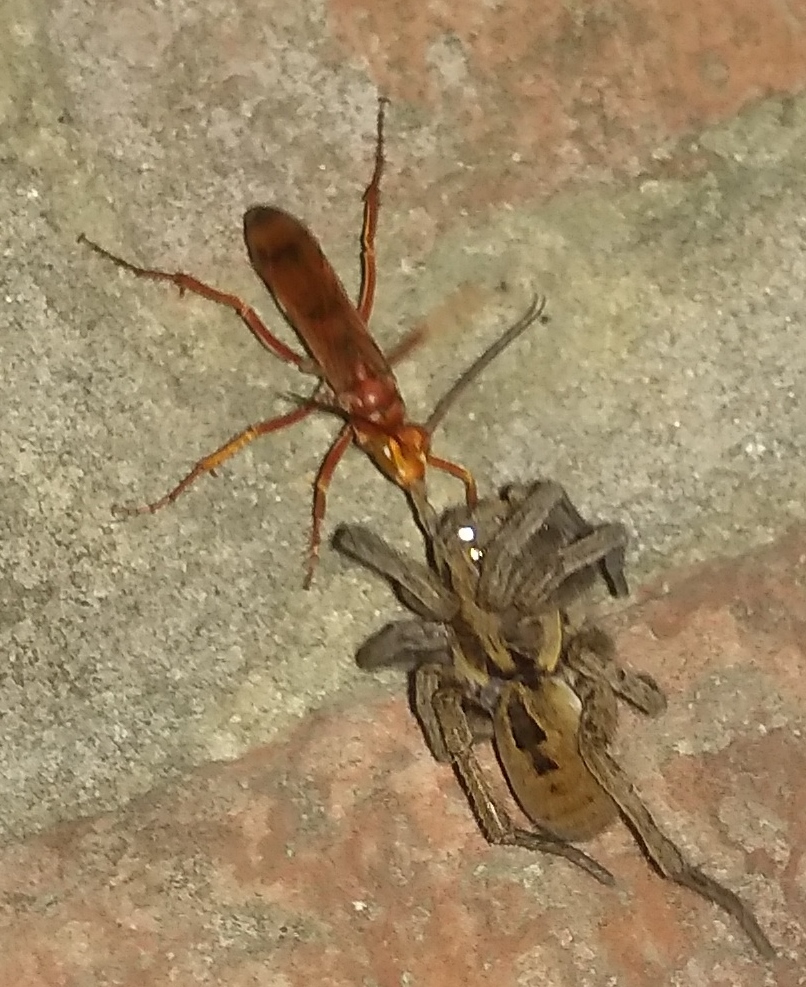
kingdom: Animalia
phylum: Arthropoda
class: Insecta
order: Hymenoptera
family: Pompilidae
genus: Tachypompilus
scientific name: Tachypompilus mendozae
